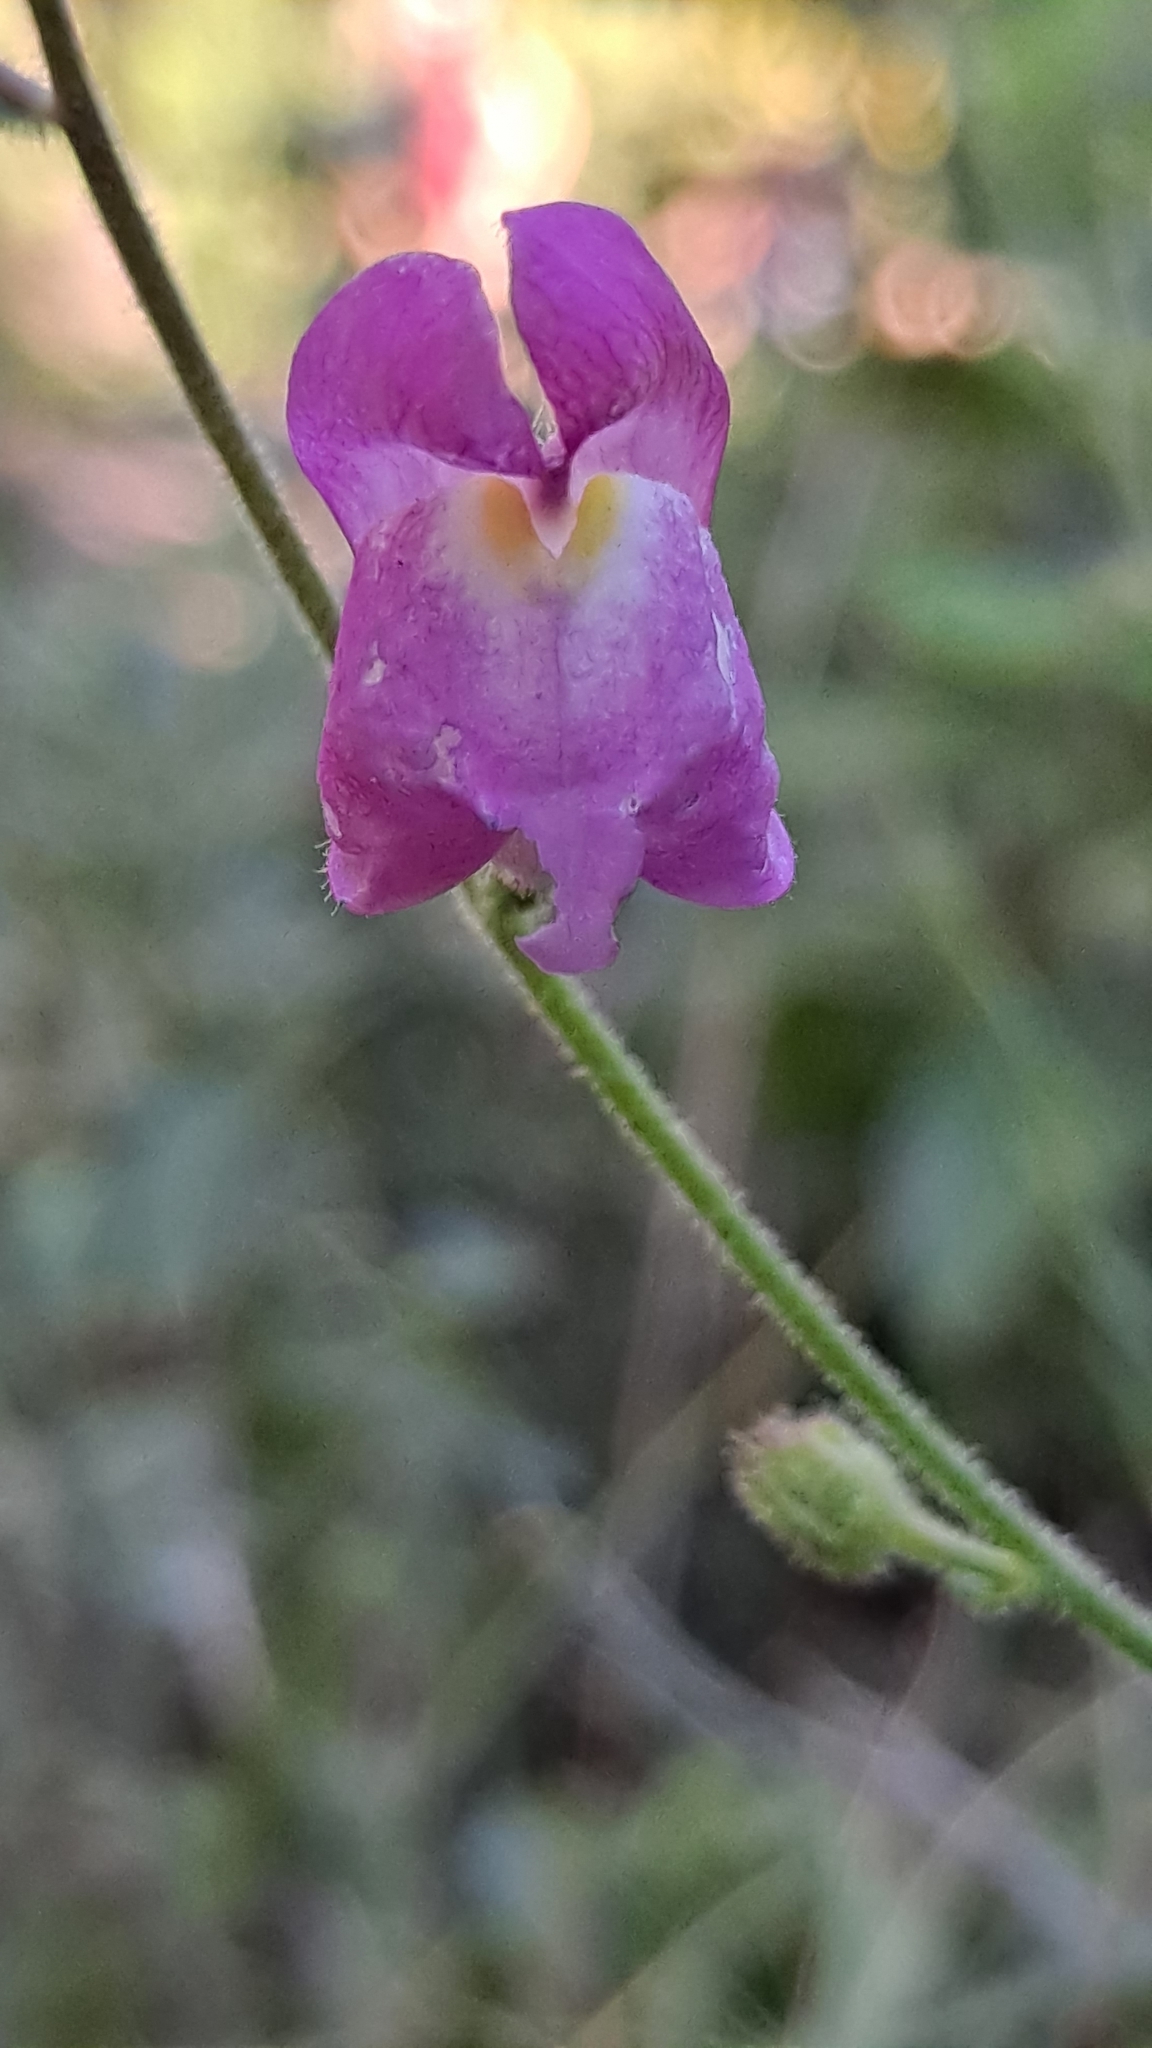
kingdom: Plantae
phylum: Tracheophyta
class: Magnoliopsida
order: Lamiales
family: Plantaginaceae
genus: Antirrhinum
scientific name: Antirrhinum litigiosum
